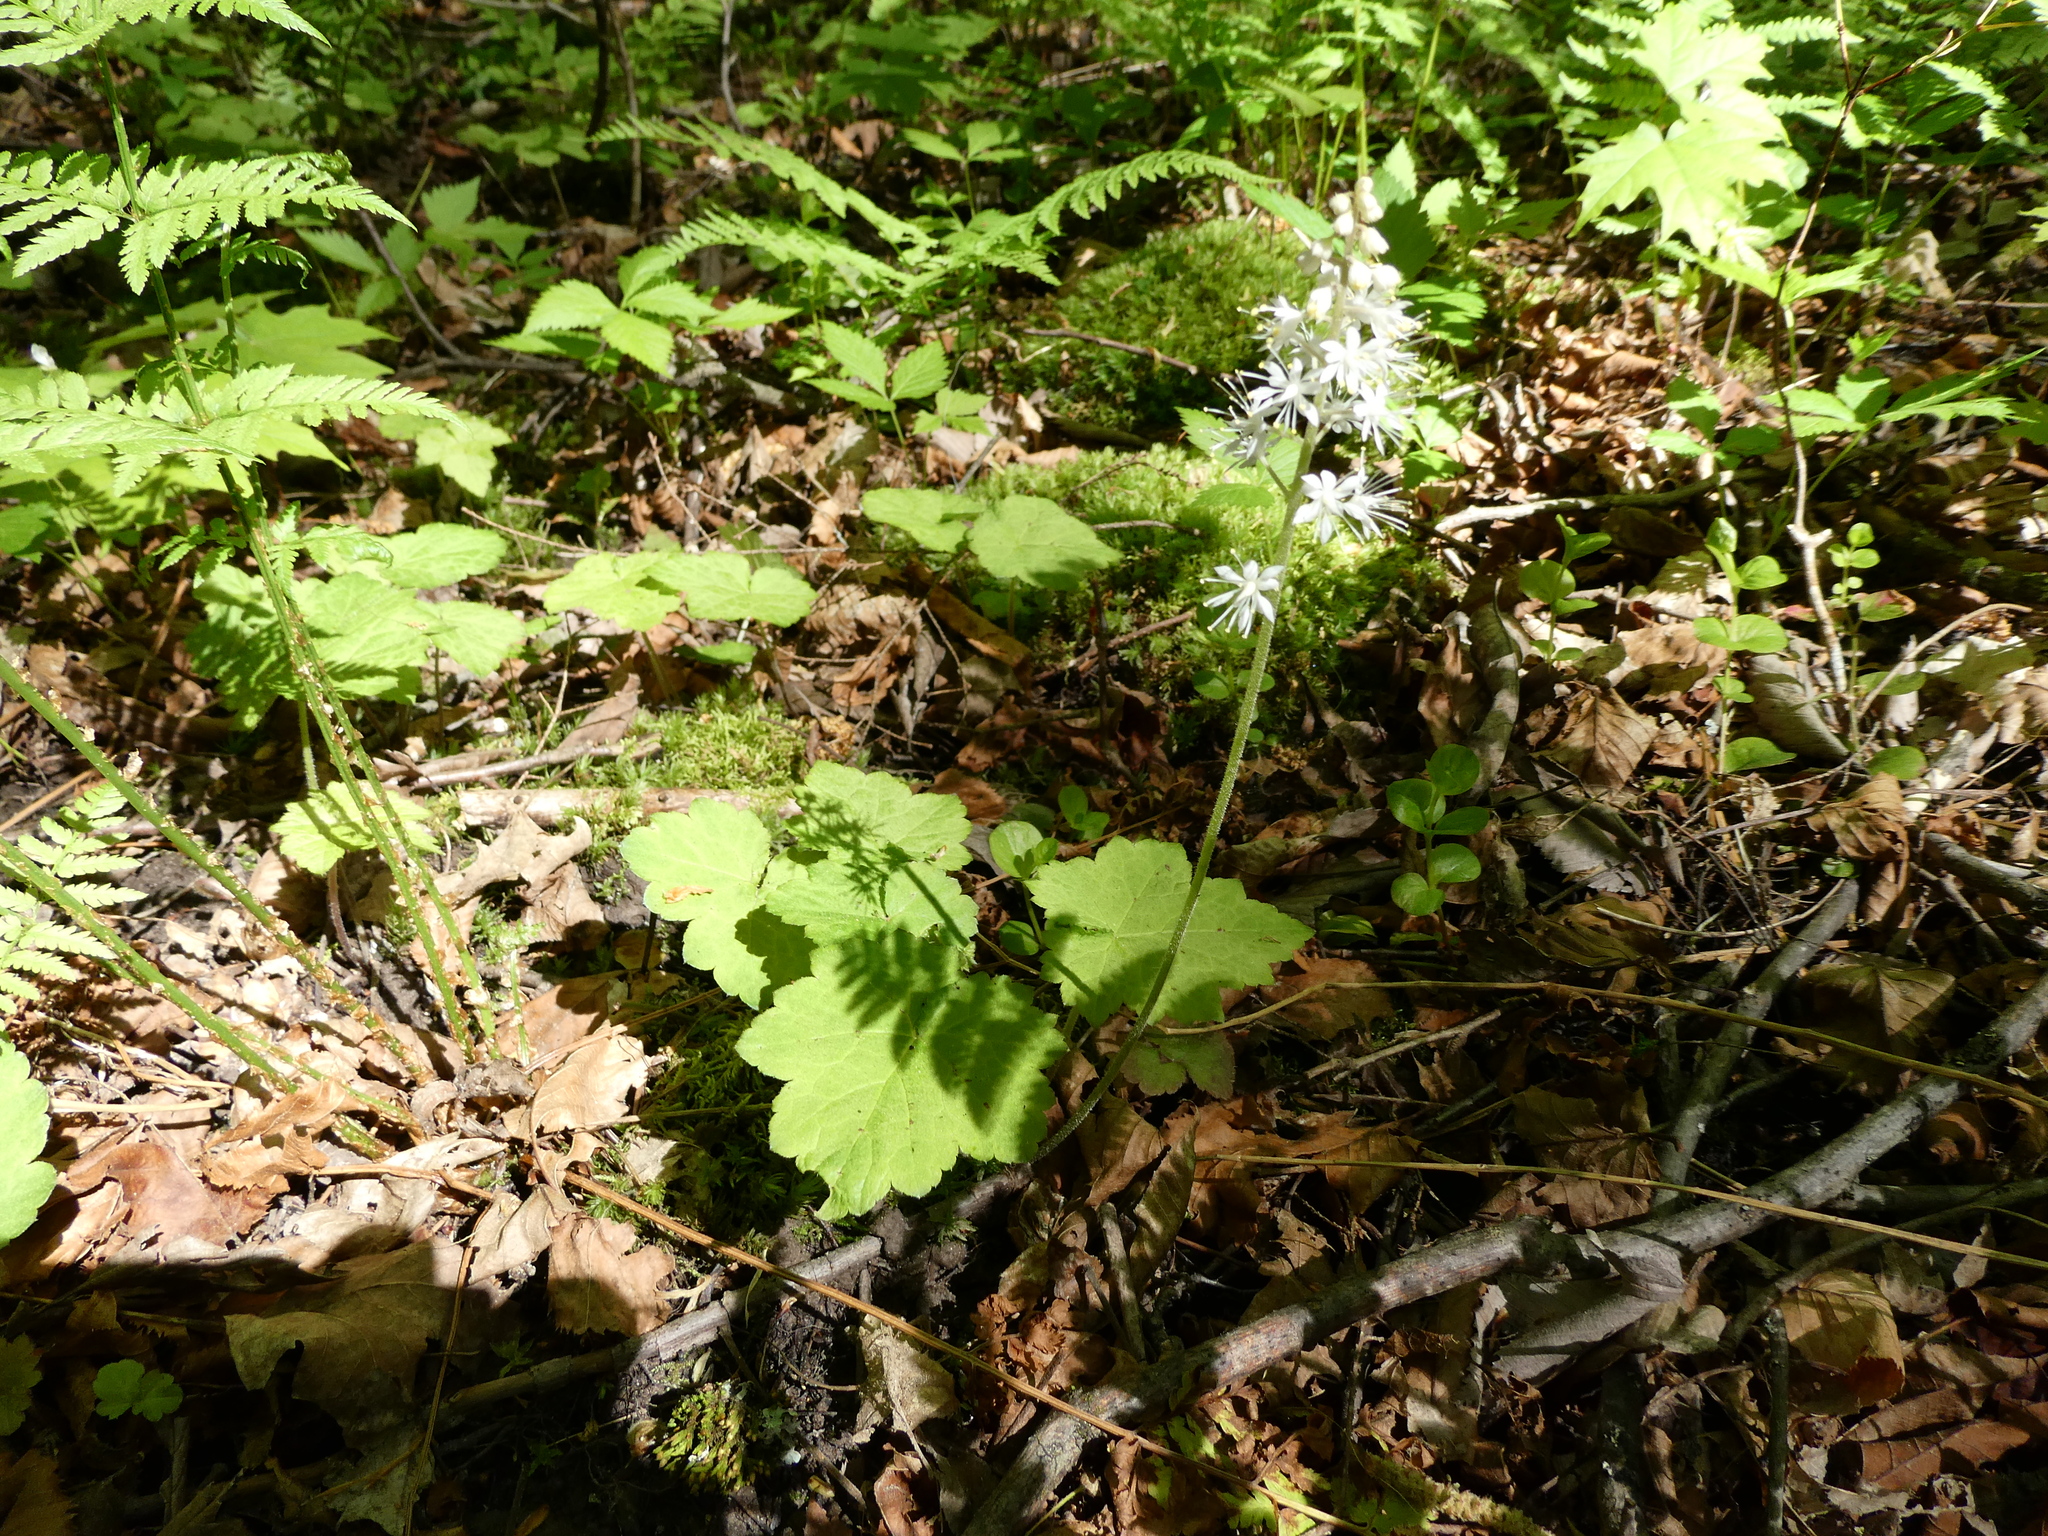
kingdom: Plantae
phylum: Tracheophyta
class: Magnoliopsida
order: Saxifragales
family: Saxifragaceae
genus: Tiarella
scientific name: Tiarella stolonifera
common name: Stoloniferous foamflower
